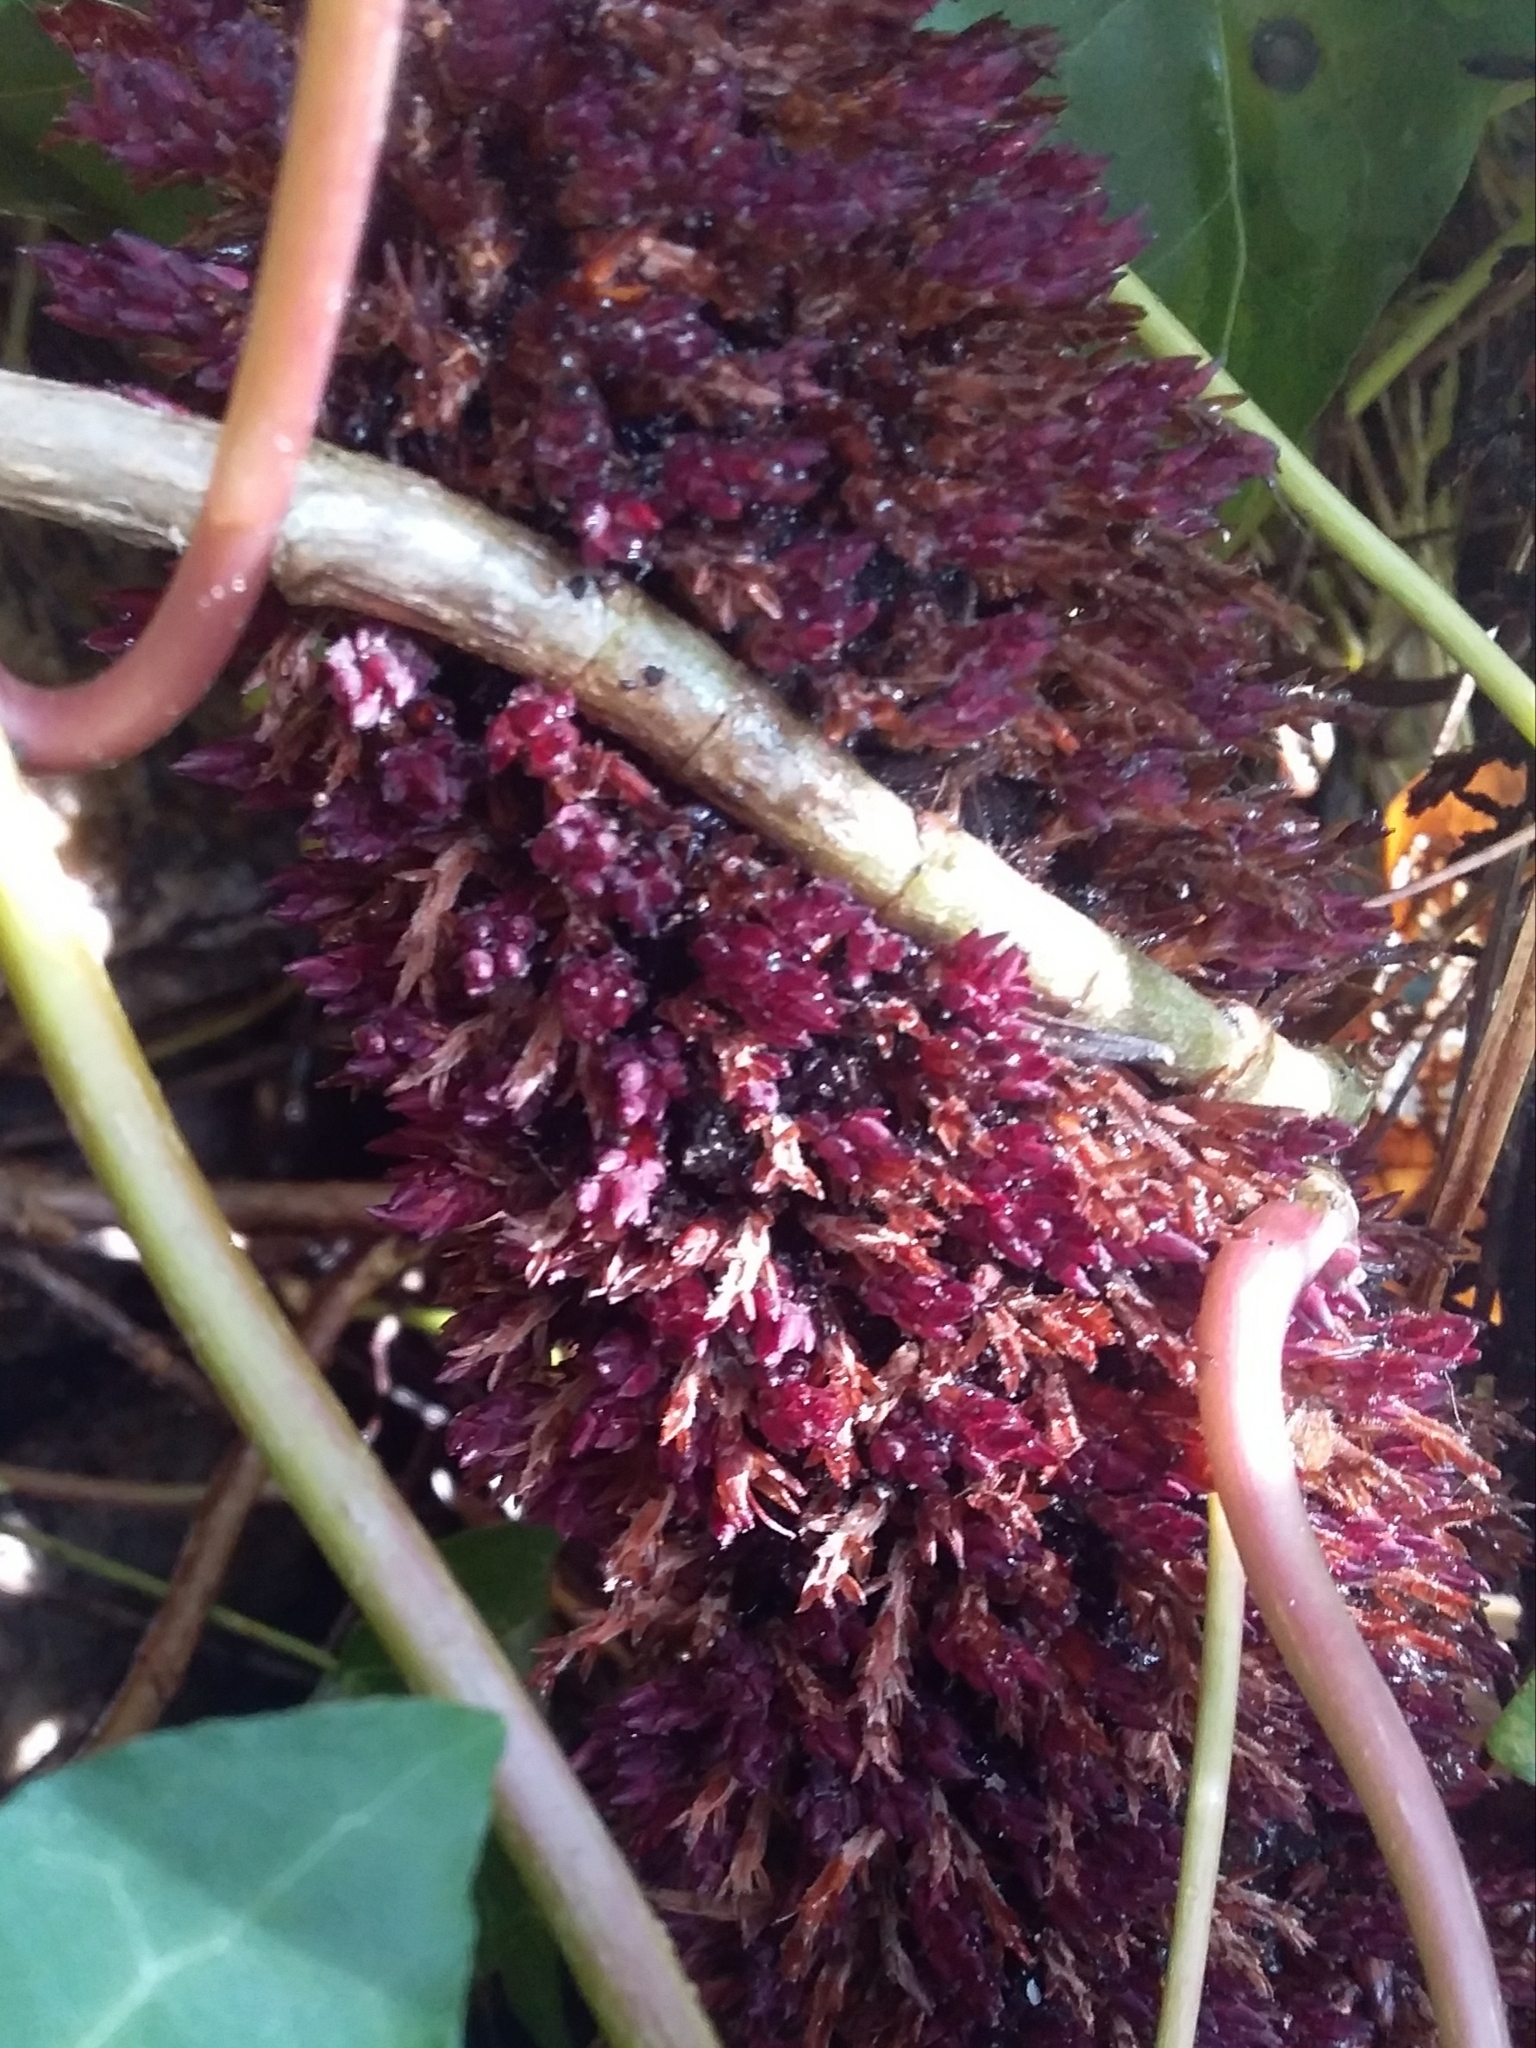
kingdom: Plantae
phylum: Tracheophyta
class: Magnoliopsida
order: Ericales
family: Ericaceae
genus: Acrotriche
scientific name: Acrotriche fasciculiflora
